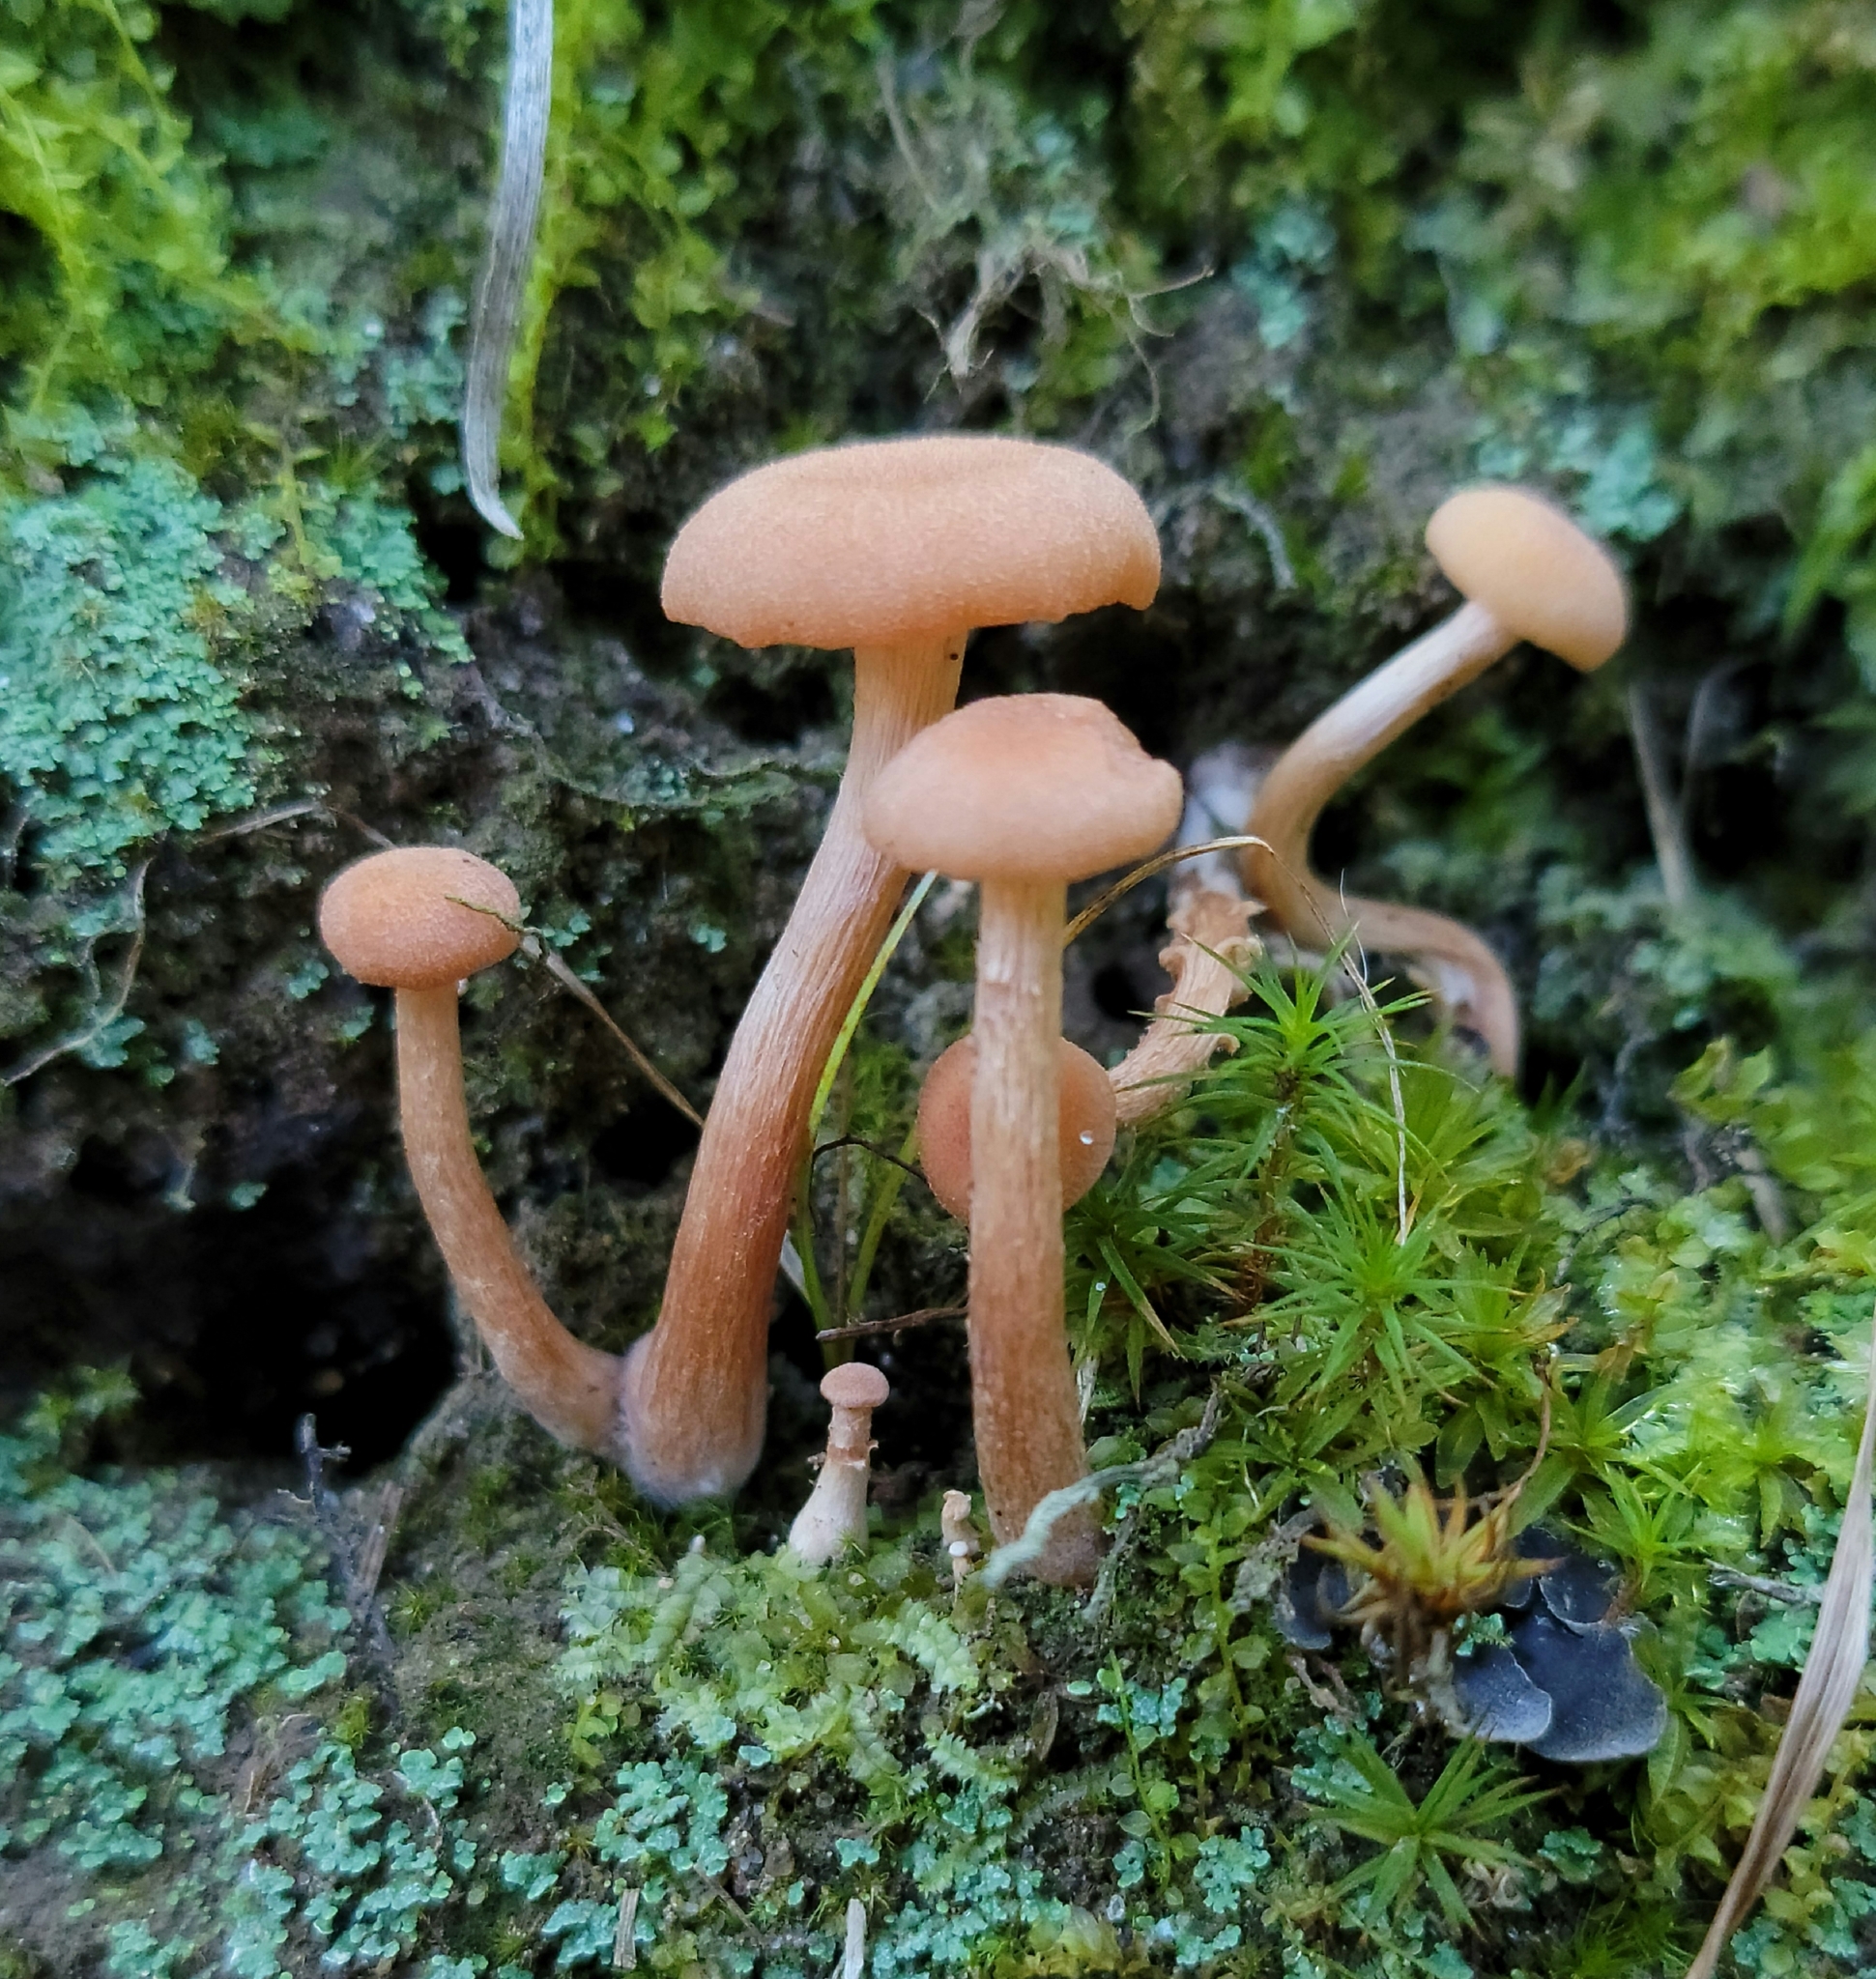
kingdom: Fungi
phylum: Basidiomycota
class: Agaricomycetes
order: Agaricales
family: Hydnangiaceae
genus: Laccaria
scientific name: Laccaria laccata
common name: Deceiver
